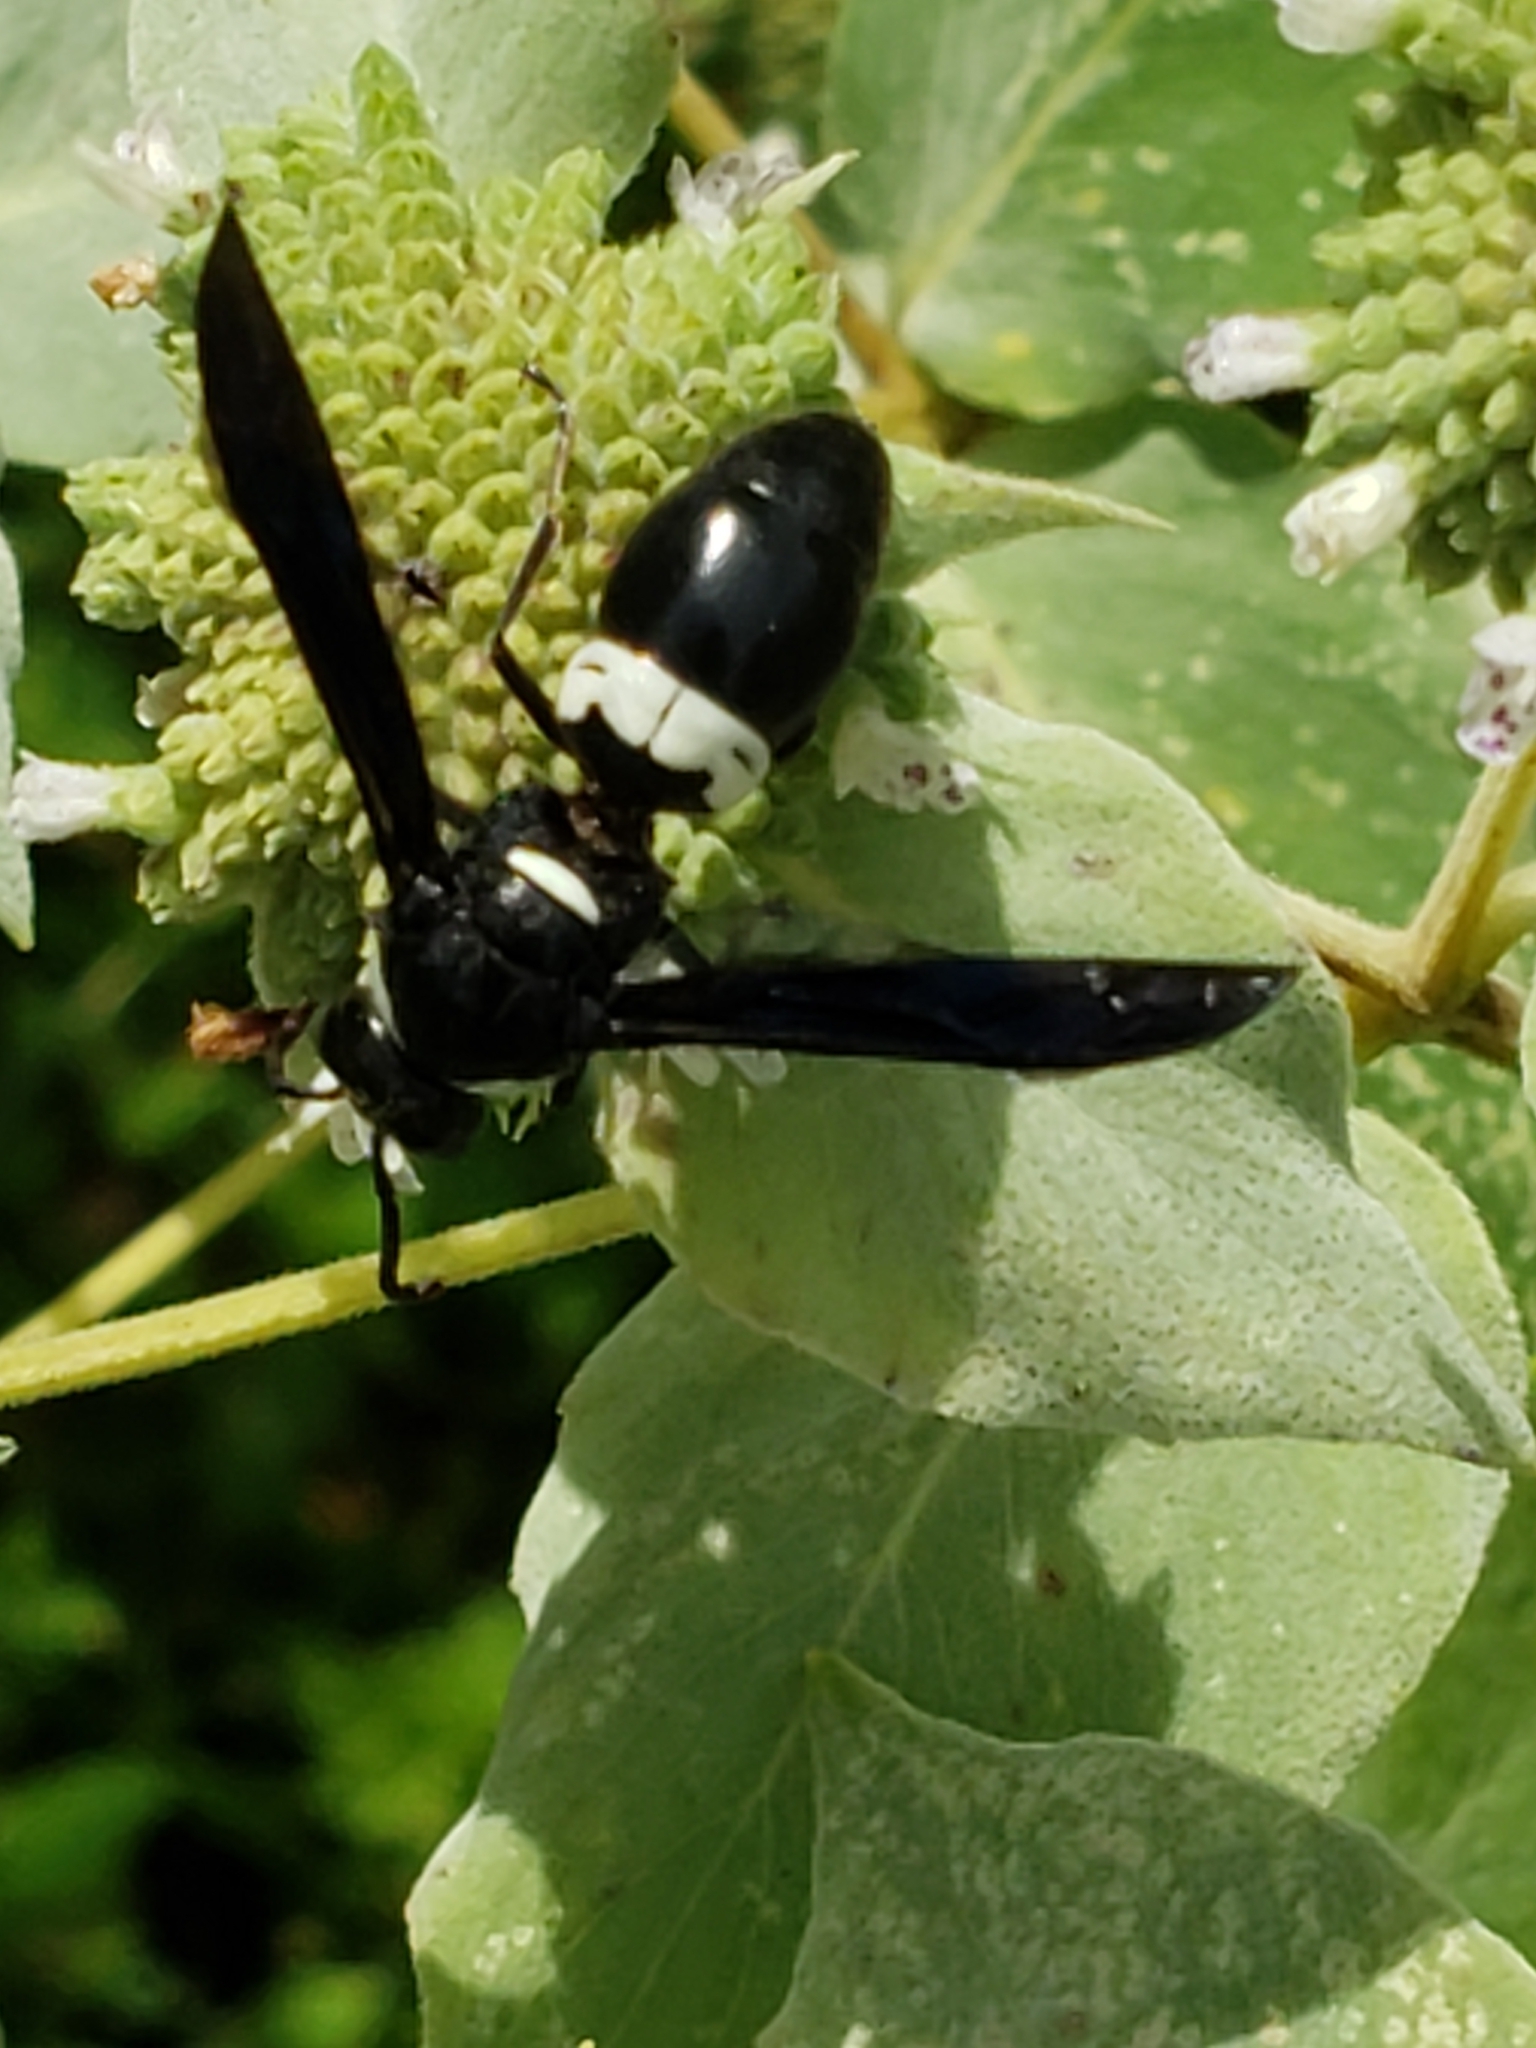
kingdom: Animalia
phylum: Arthropoda
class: Insecta
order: Hymenoptera
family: Eumenidae
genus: Monobia
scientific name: Monobia quadridens
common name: Four-toothed mason wasp
